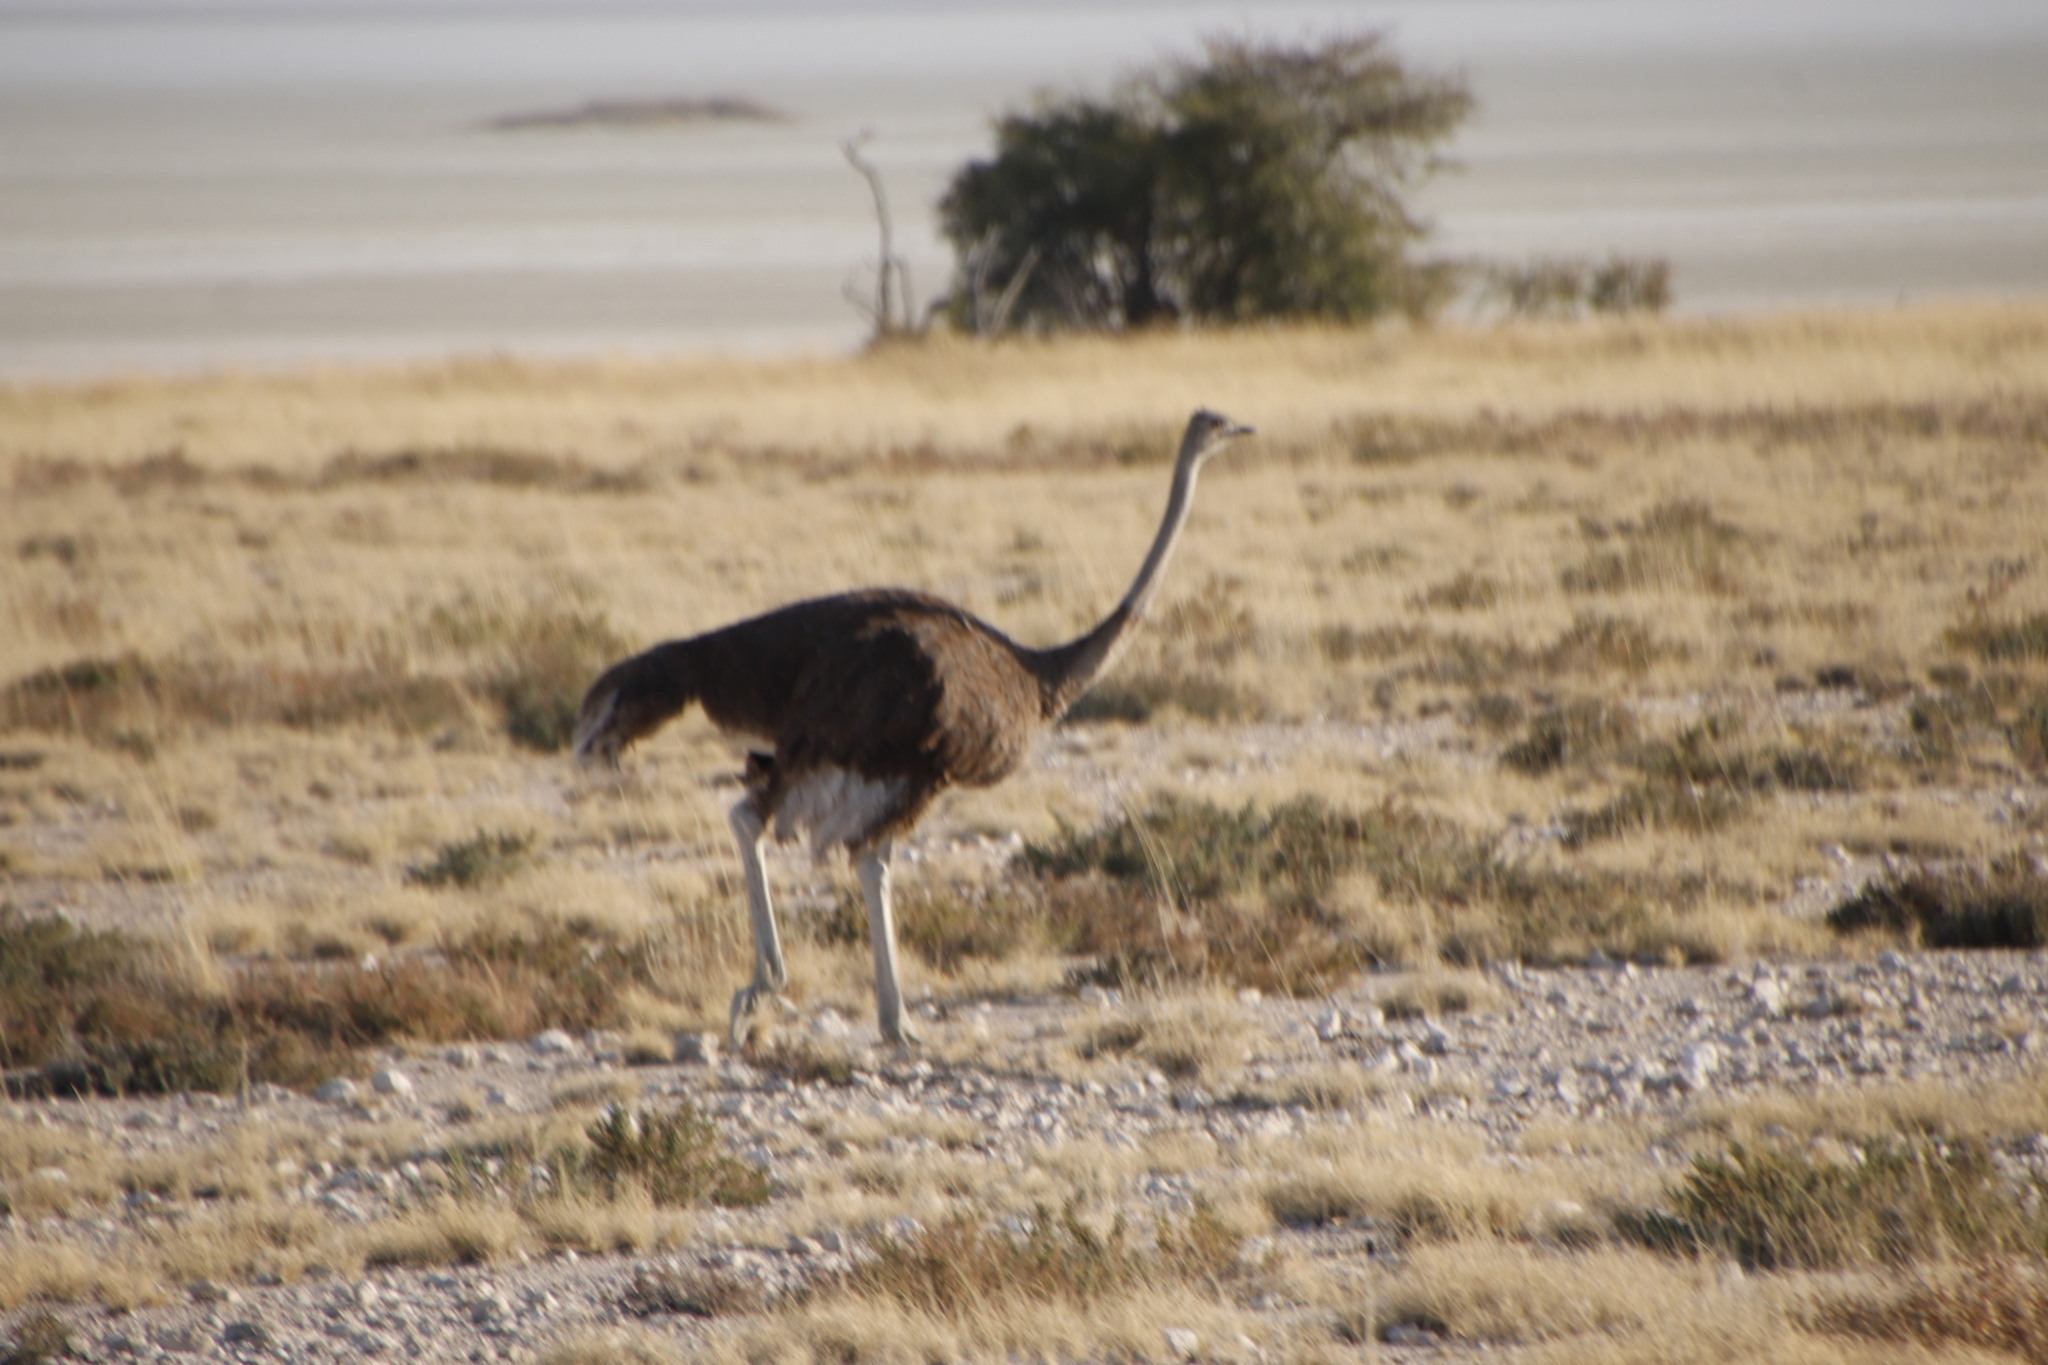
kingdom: Animalia
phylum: Chordata
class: Aves
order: Struthioniformes
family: Struthionidae
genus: Struthio
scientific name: Struthio camelus
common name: Common ostrich
